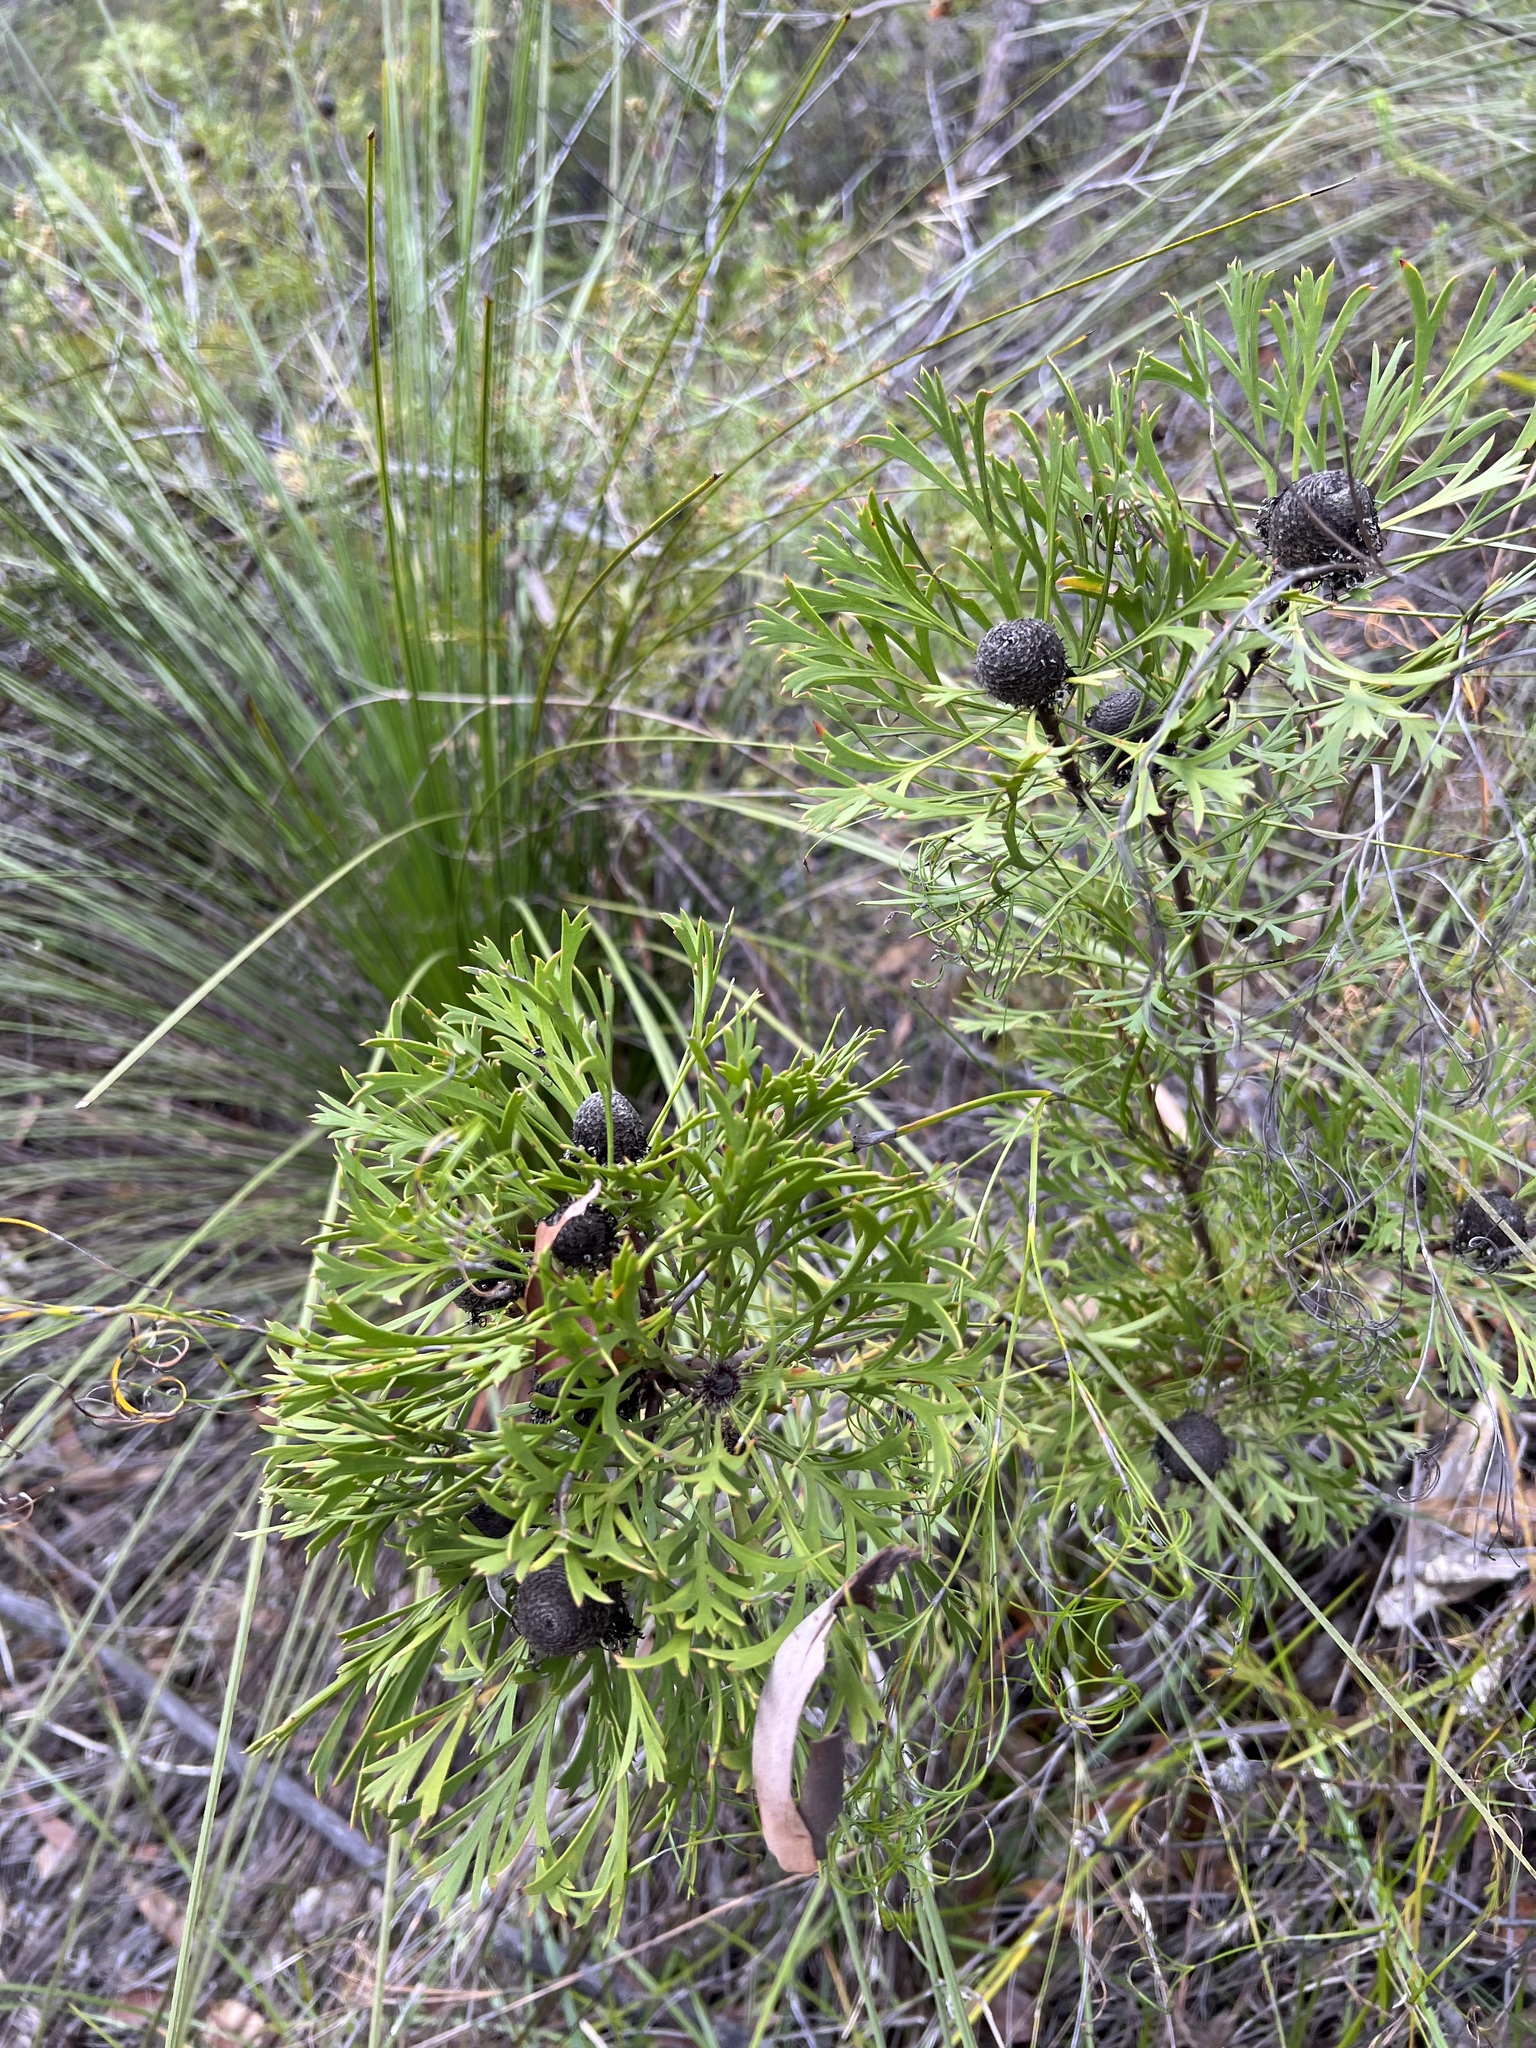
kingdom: Plantae
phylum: Tracheophyta
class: Magnoliopsida
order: Proteales
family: Proteaceae
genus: Isopogon
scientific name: Isopogon anemonifolius
